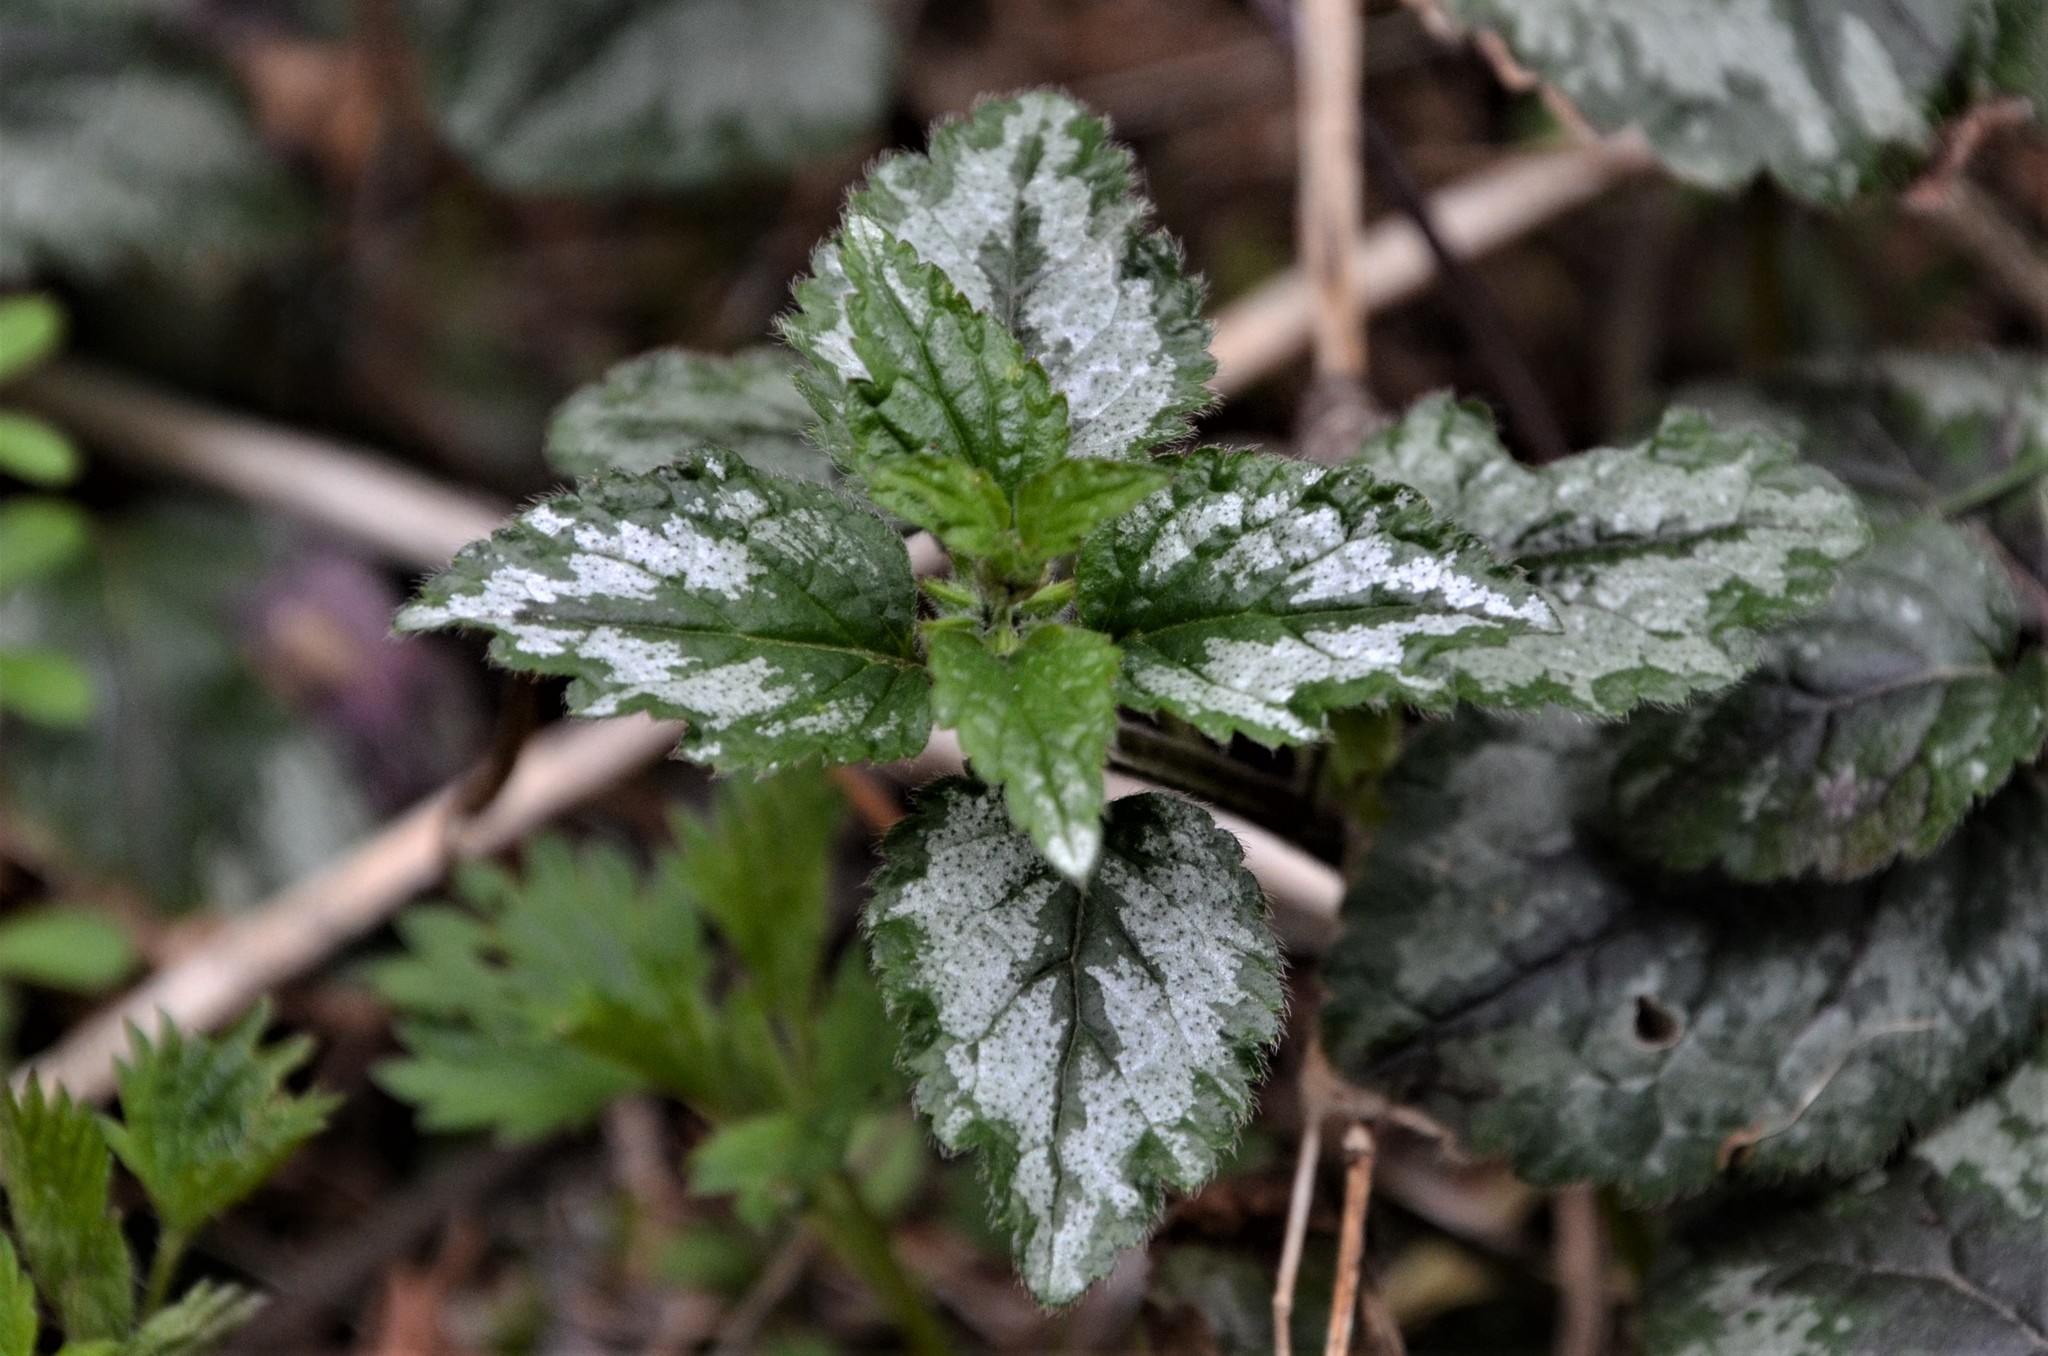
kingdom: Plantae
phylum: Tracheophyta
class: Magnoliopsida
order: Lamiales
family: Lamiaceae
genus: Lamium
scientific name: Lamium galeobdolon
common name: Yellow archangel
